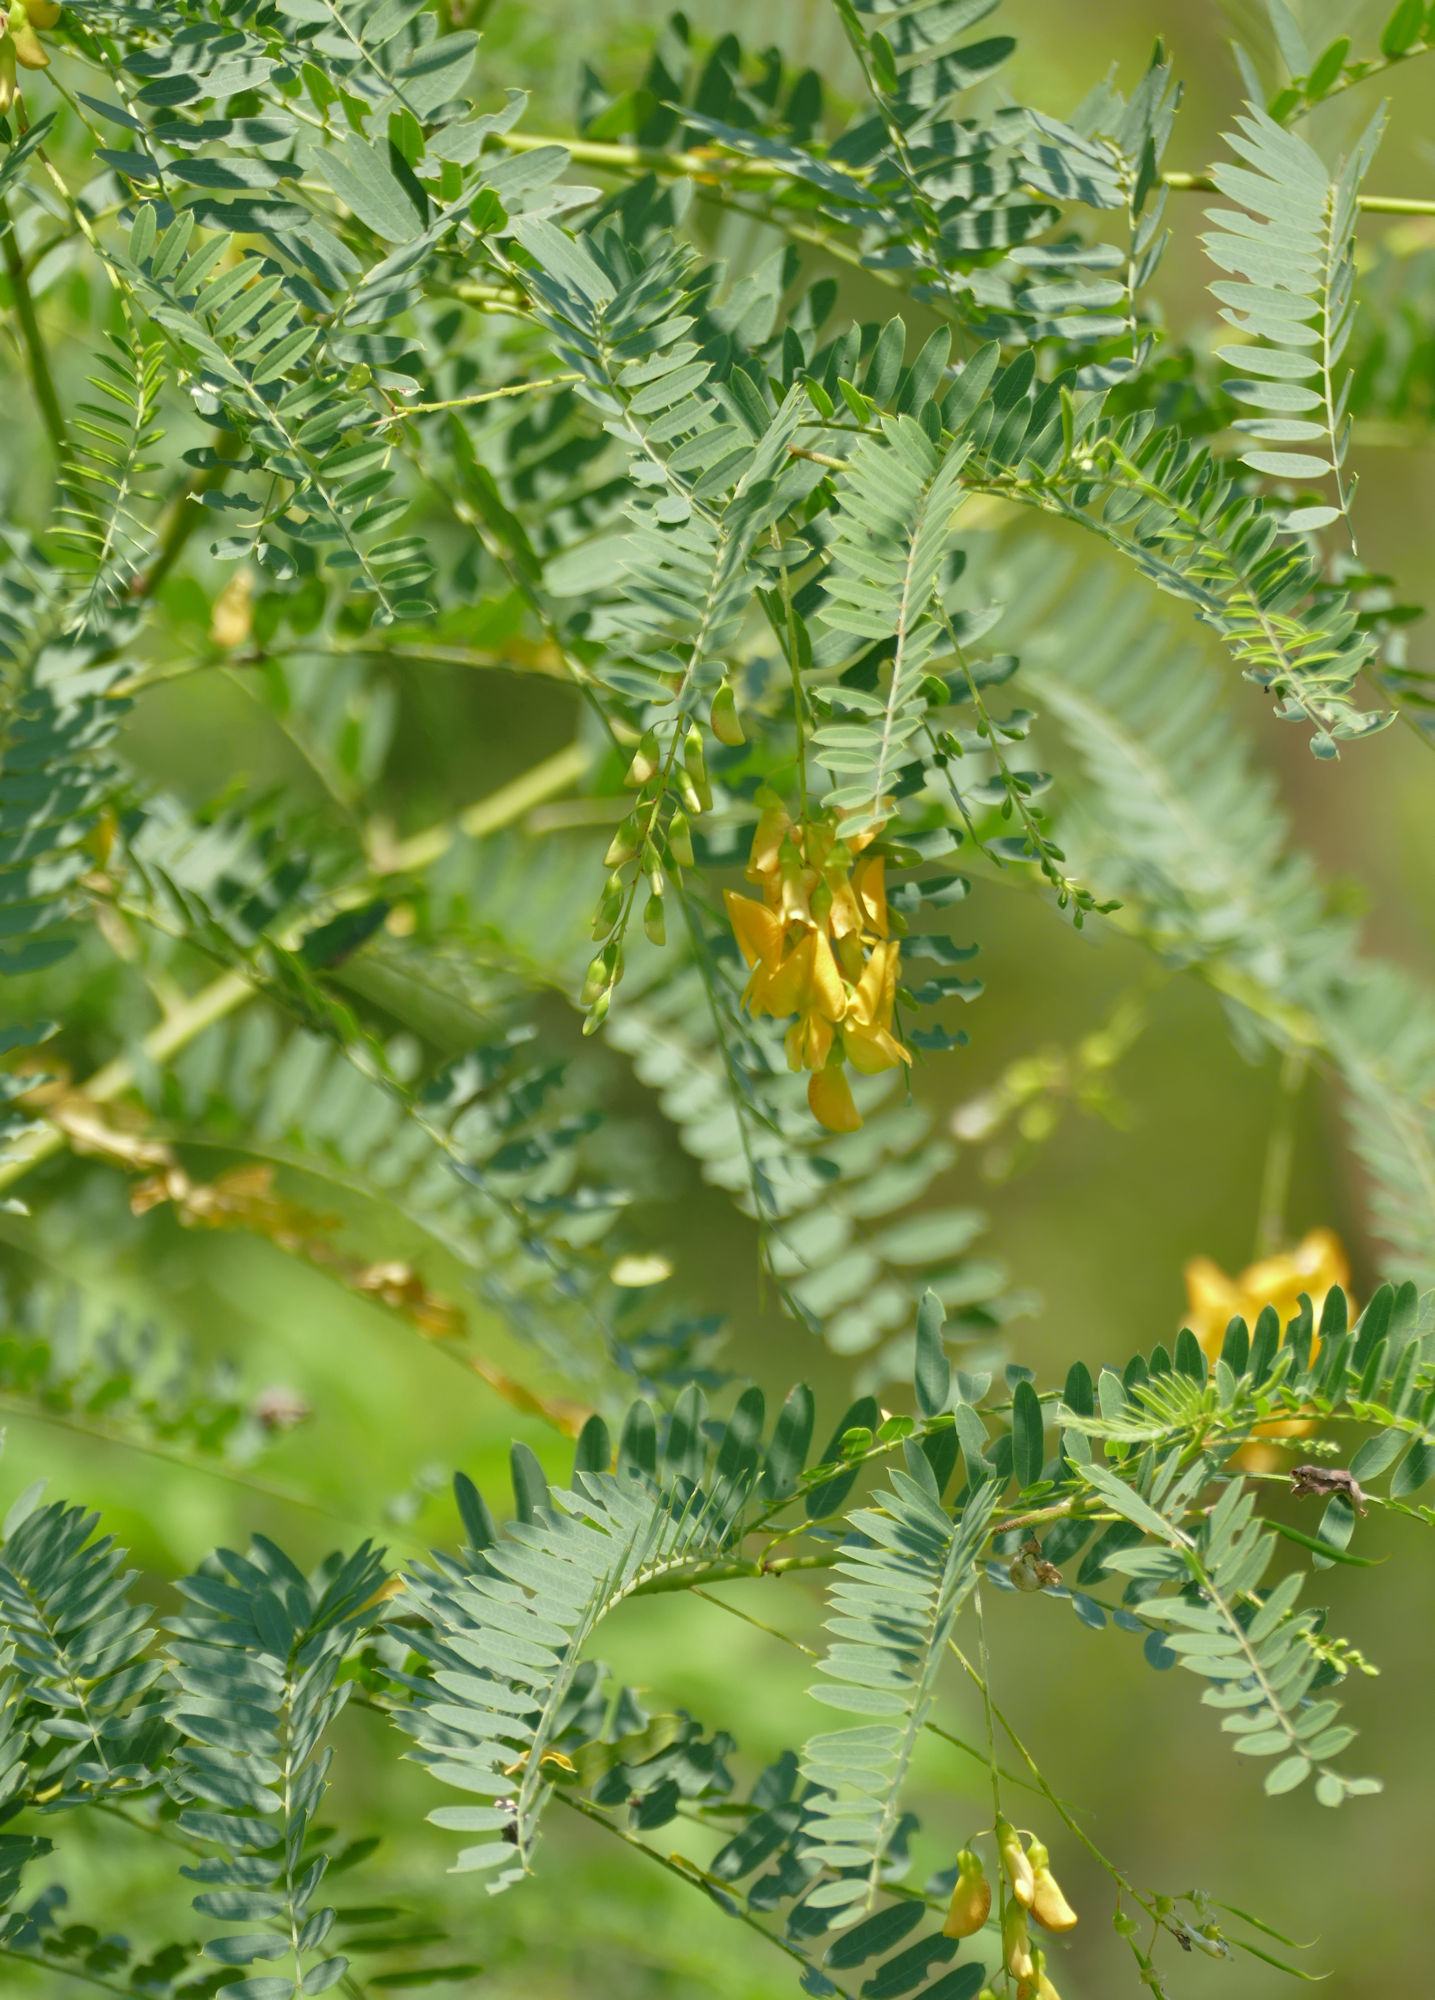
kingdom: Plantae
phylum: Tracheophyta
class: Magnoliopsida
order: Fabales
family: Fabaceae
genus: Sesbania
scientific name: Sesbania drummondii
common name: Poison-bean
